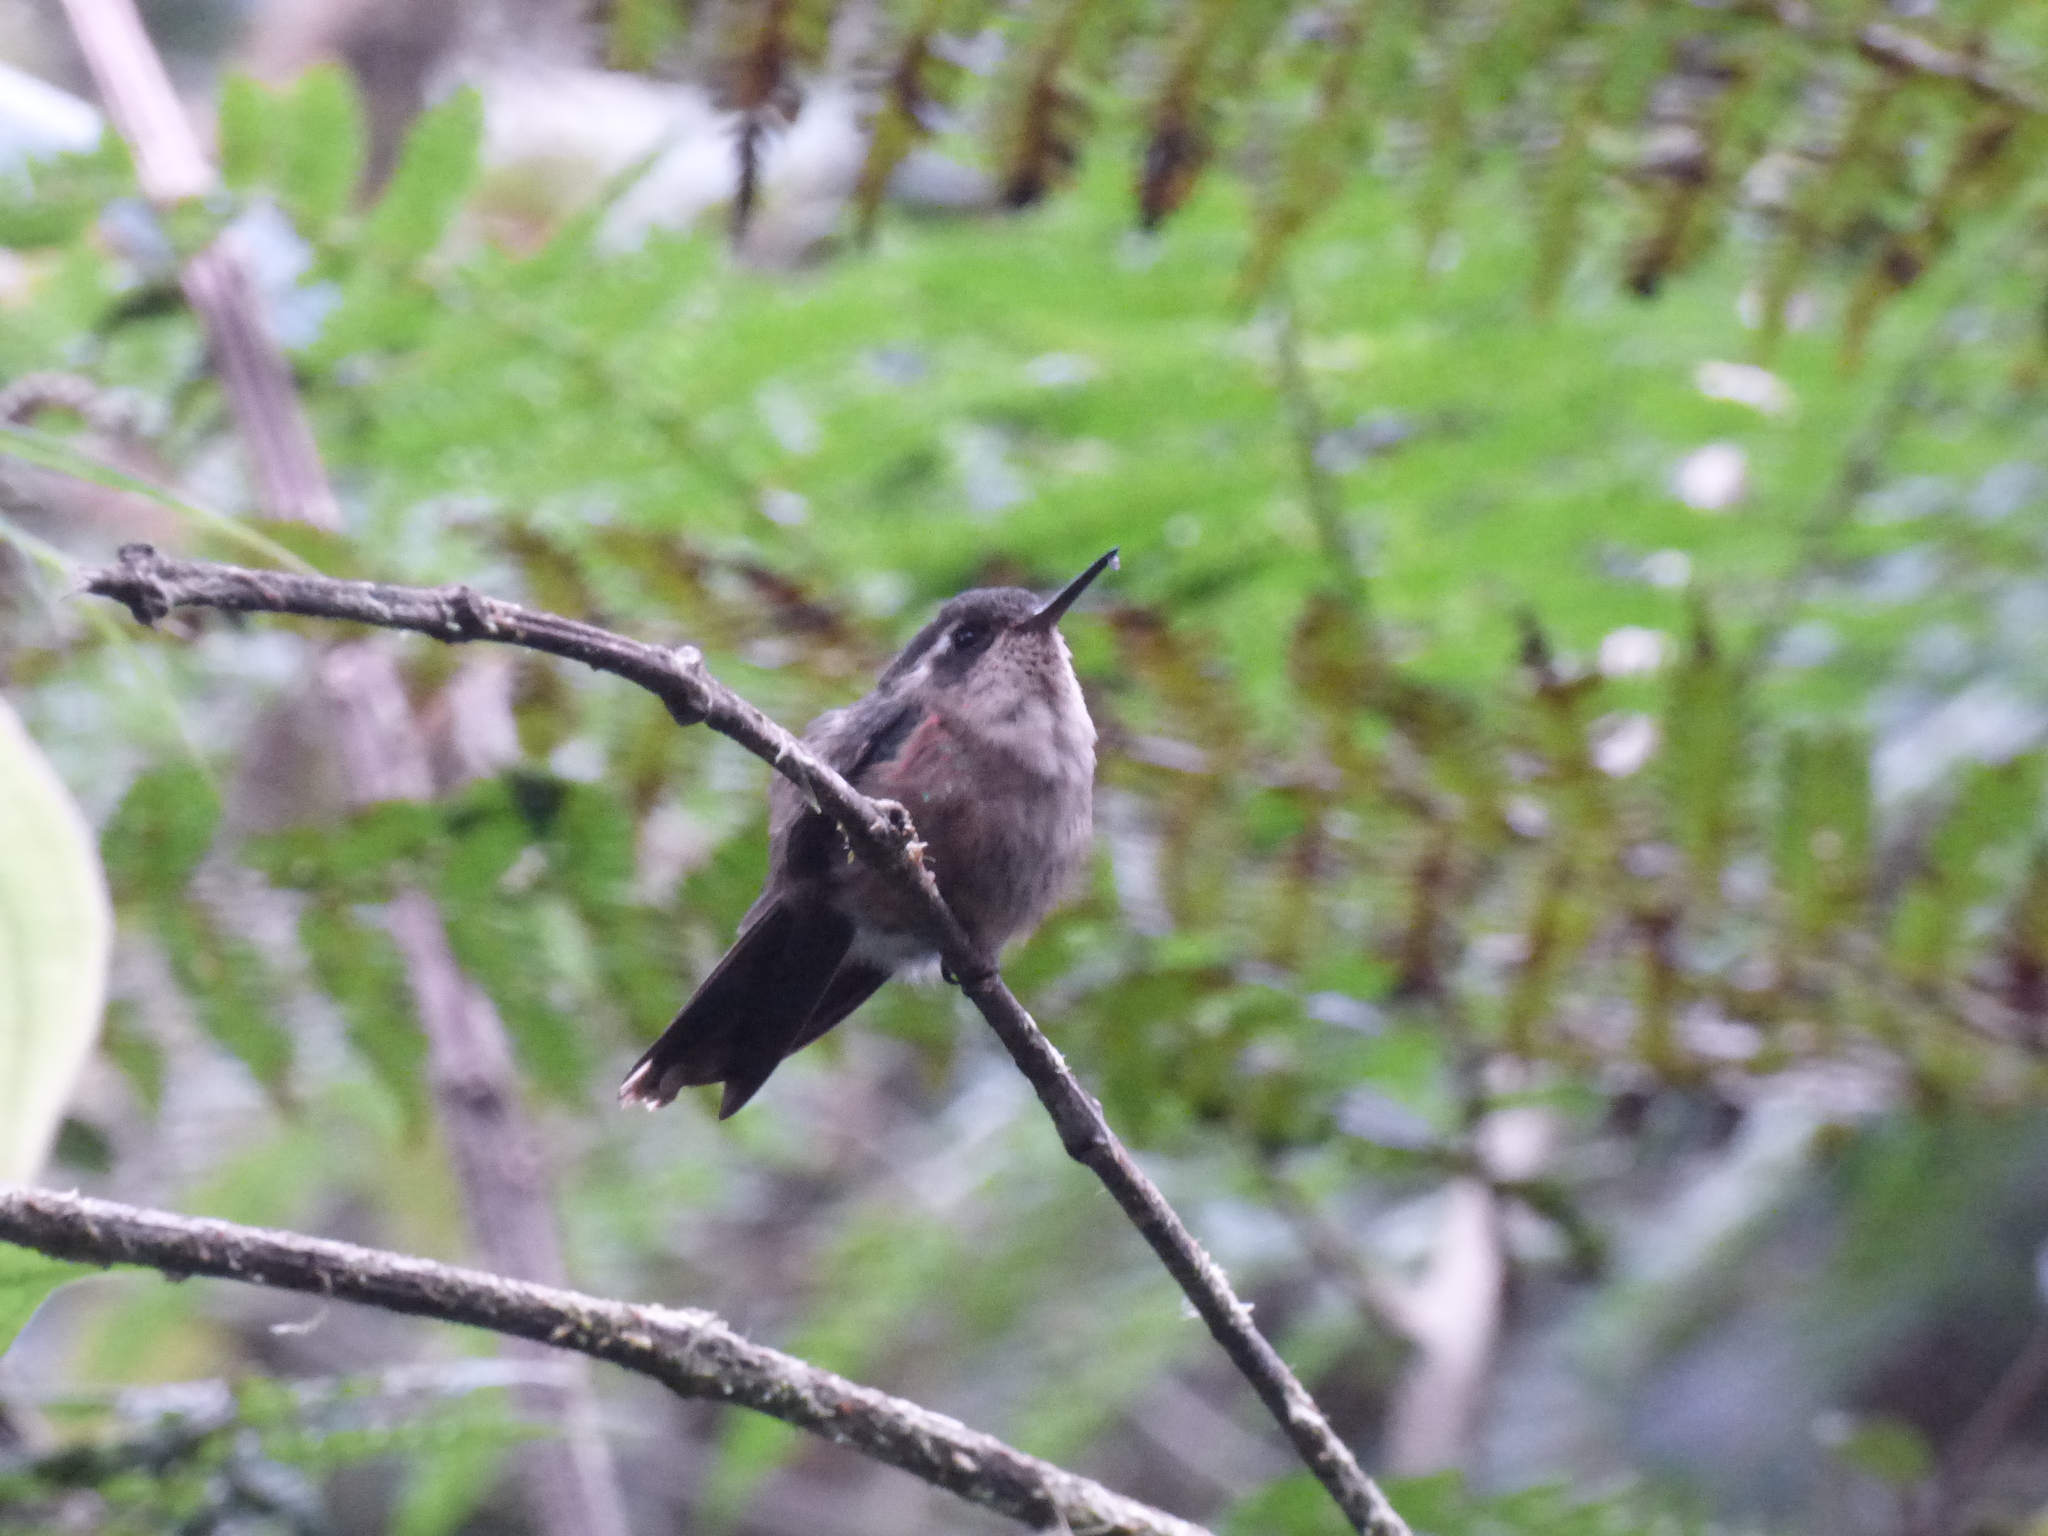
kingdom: Animalia
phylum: Chordata
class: Aves
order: Apodiformes
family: Trochilidae
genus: Adelomyia
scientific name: Adelomyia melanogenys
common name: Speckled hummingbird
